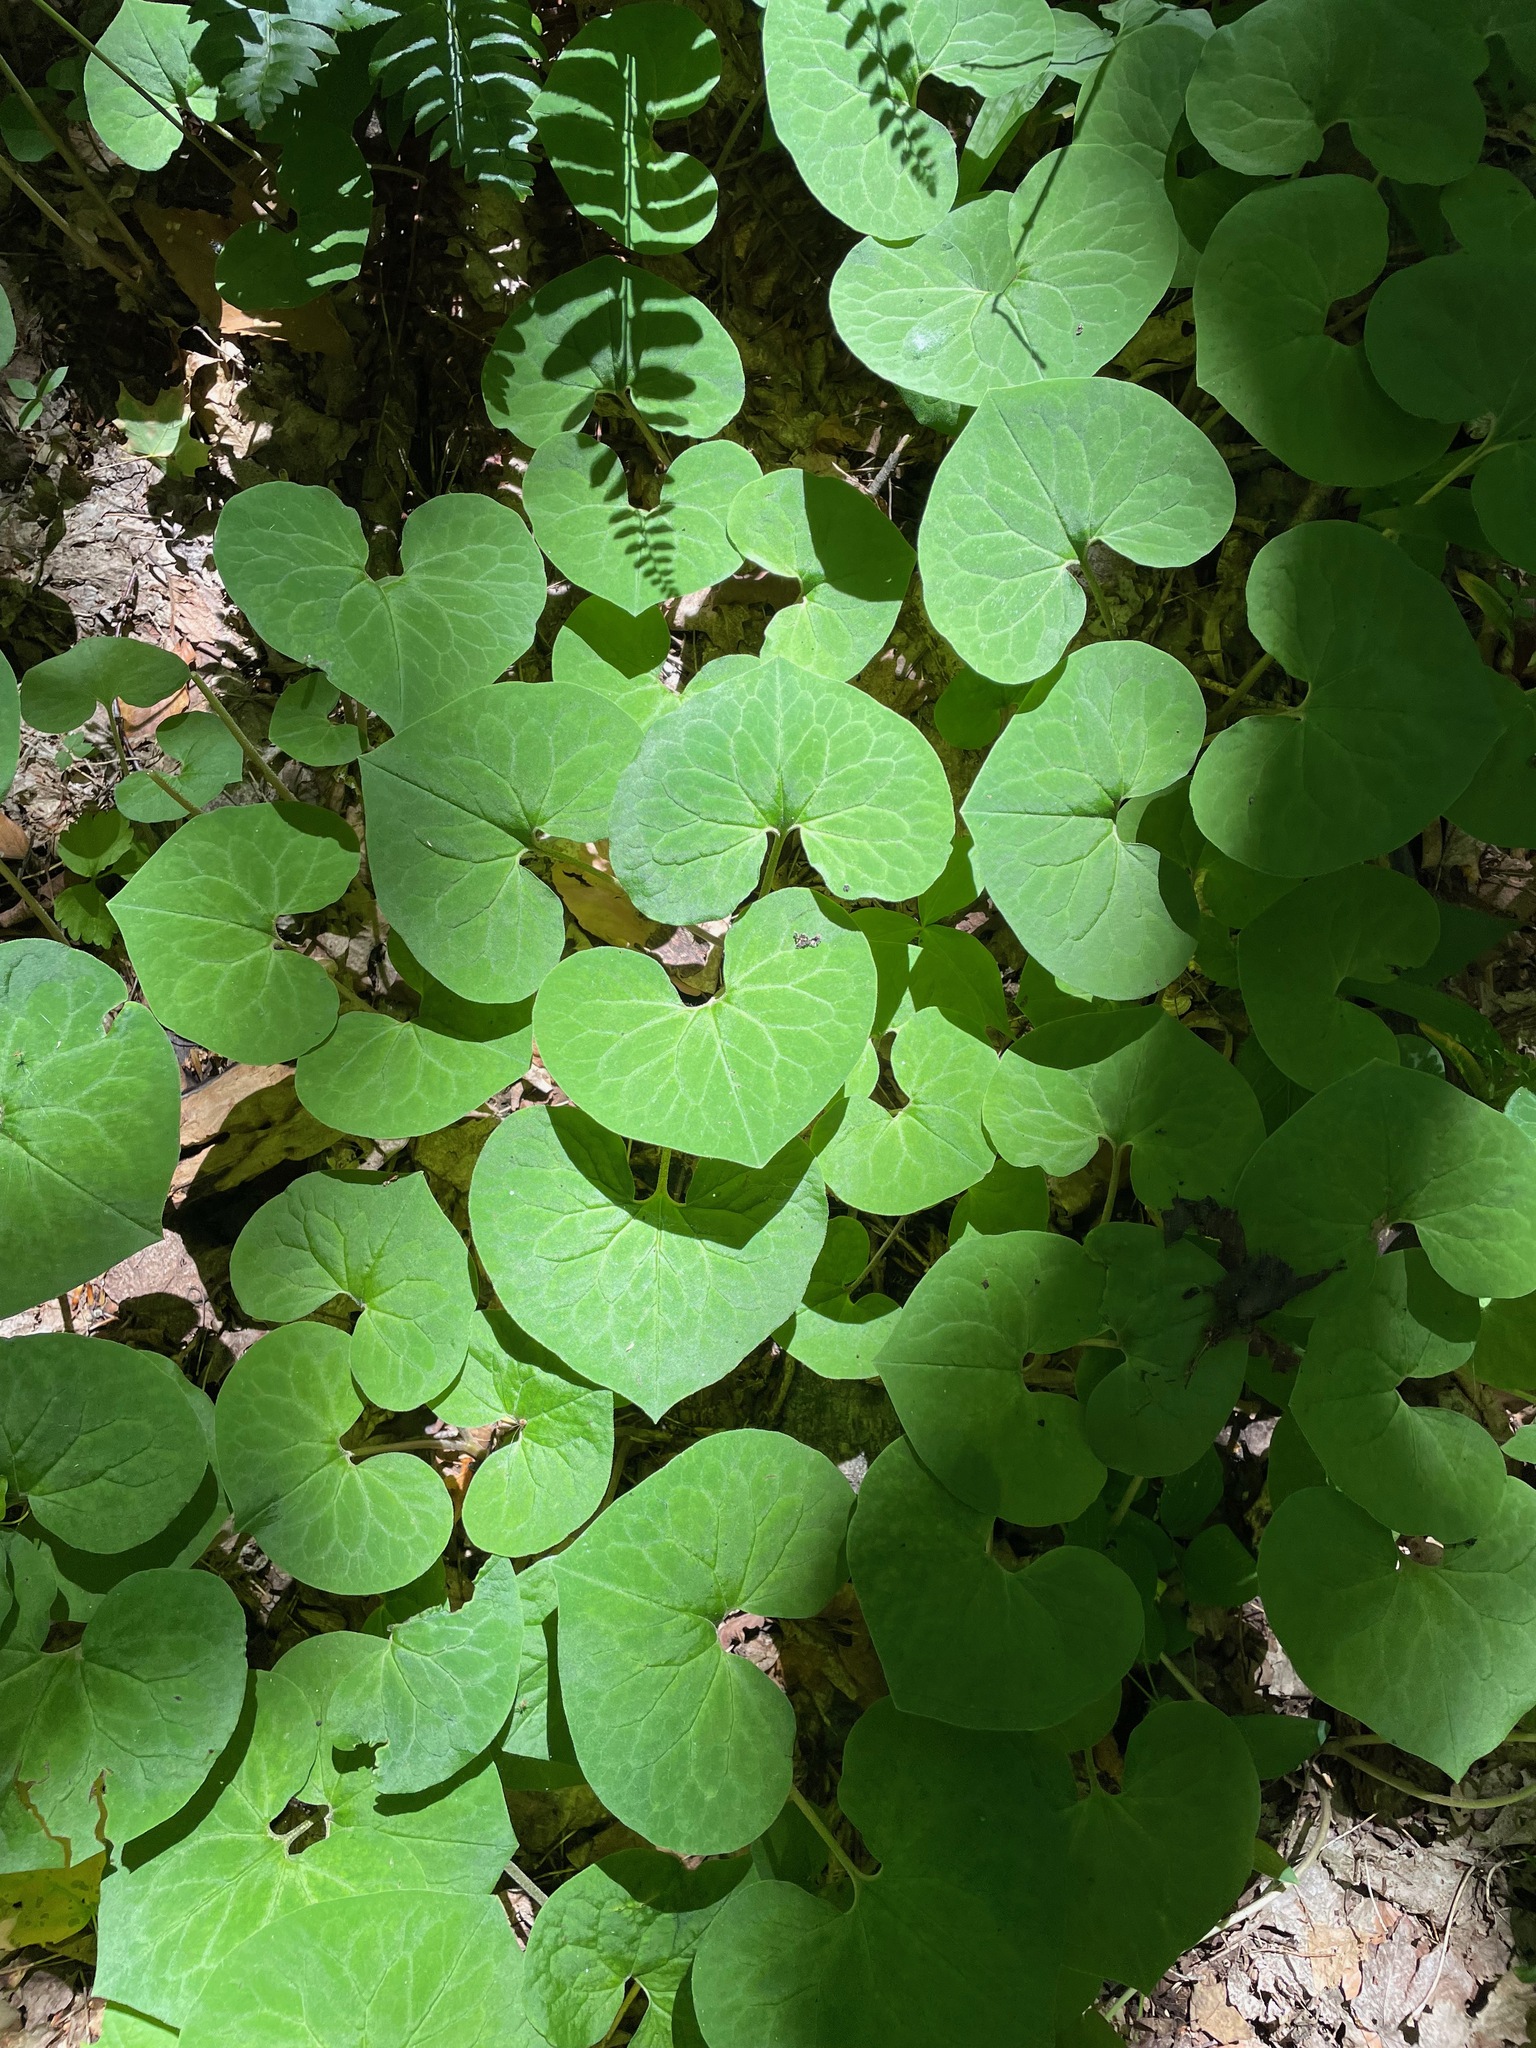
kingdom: Plantae
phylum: Tracheophyta
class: Magnoliopsida
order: Piperales
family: Aristolochiaceae
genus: Asarum
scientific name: Asarum canadense
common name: Wild ginger
